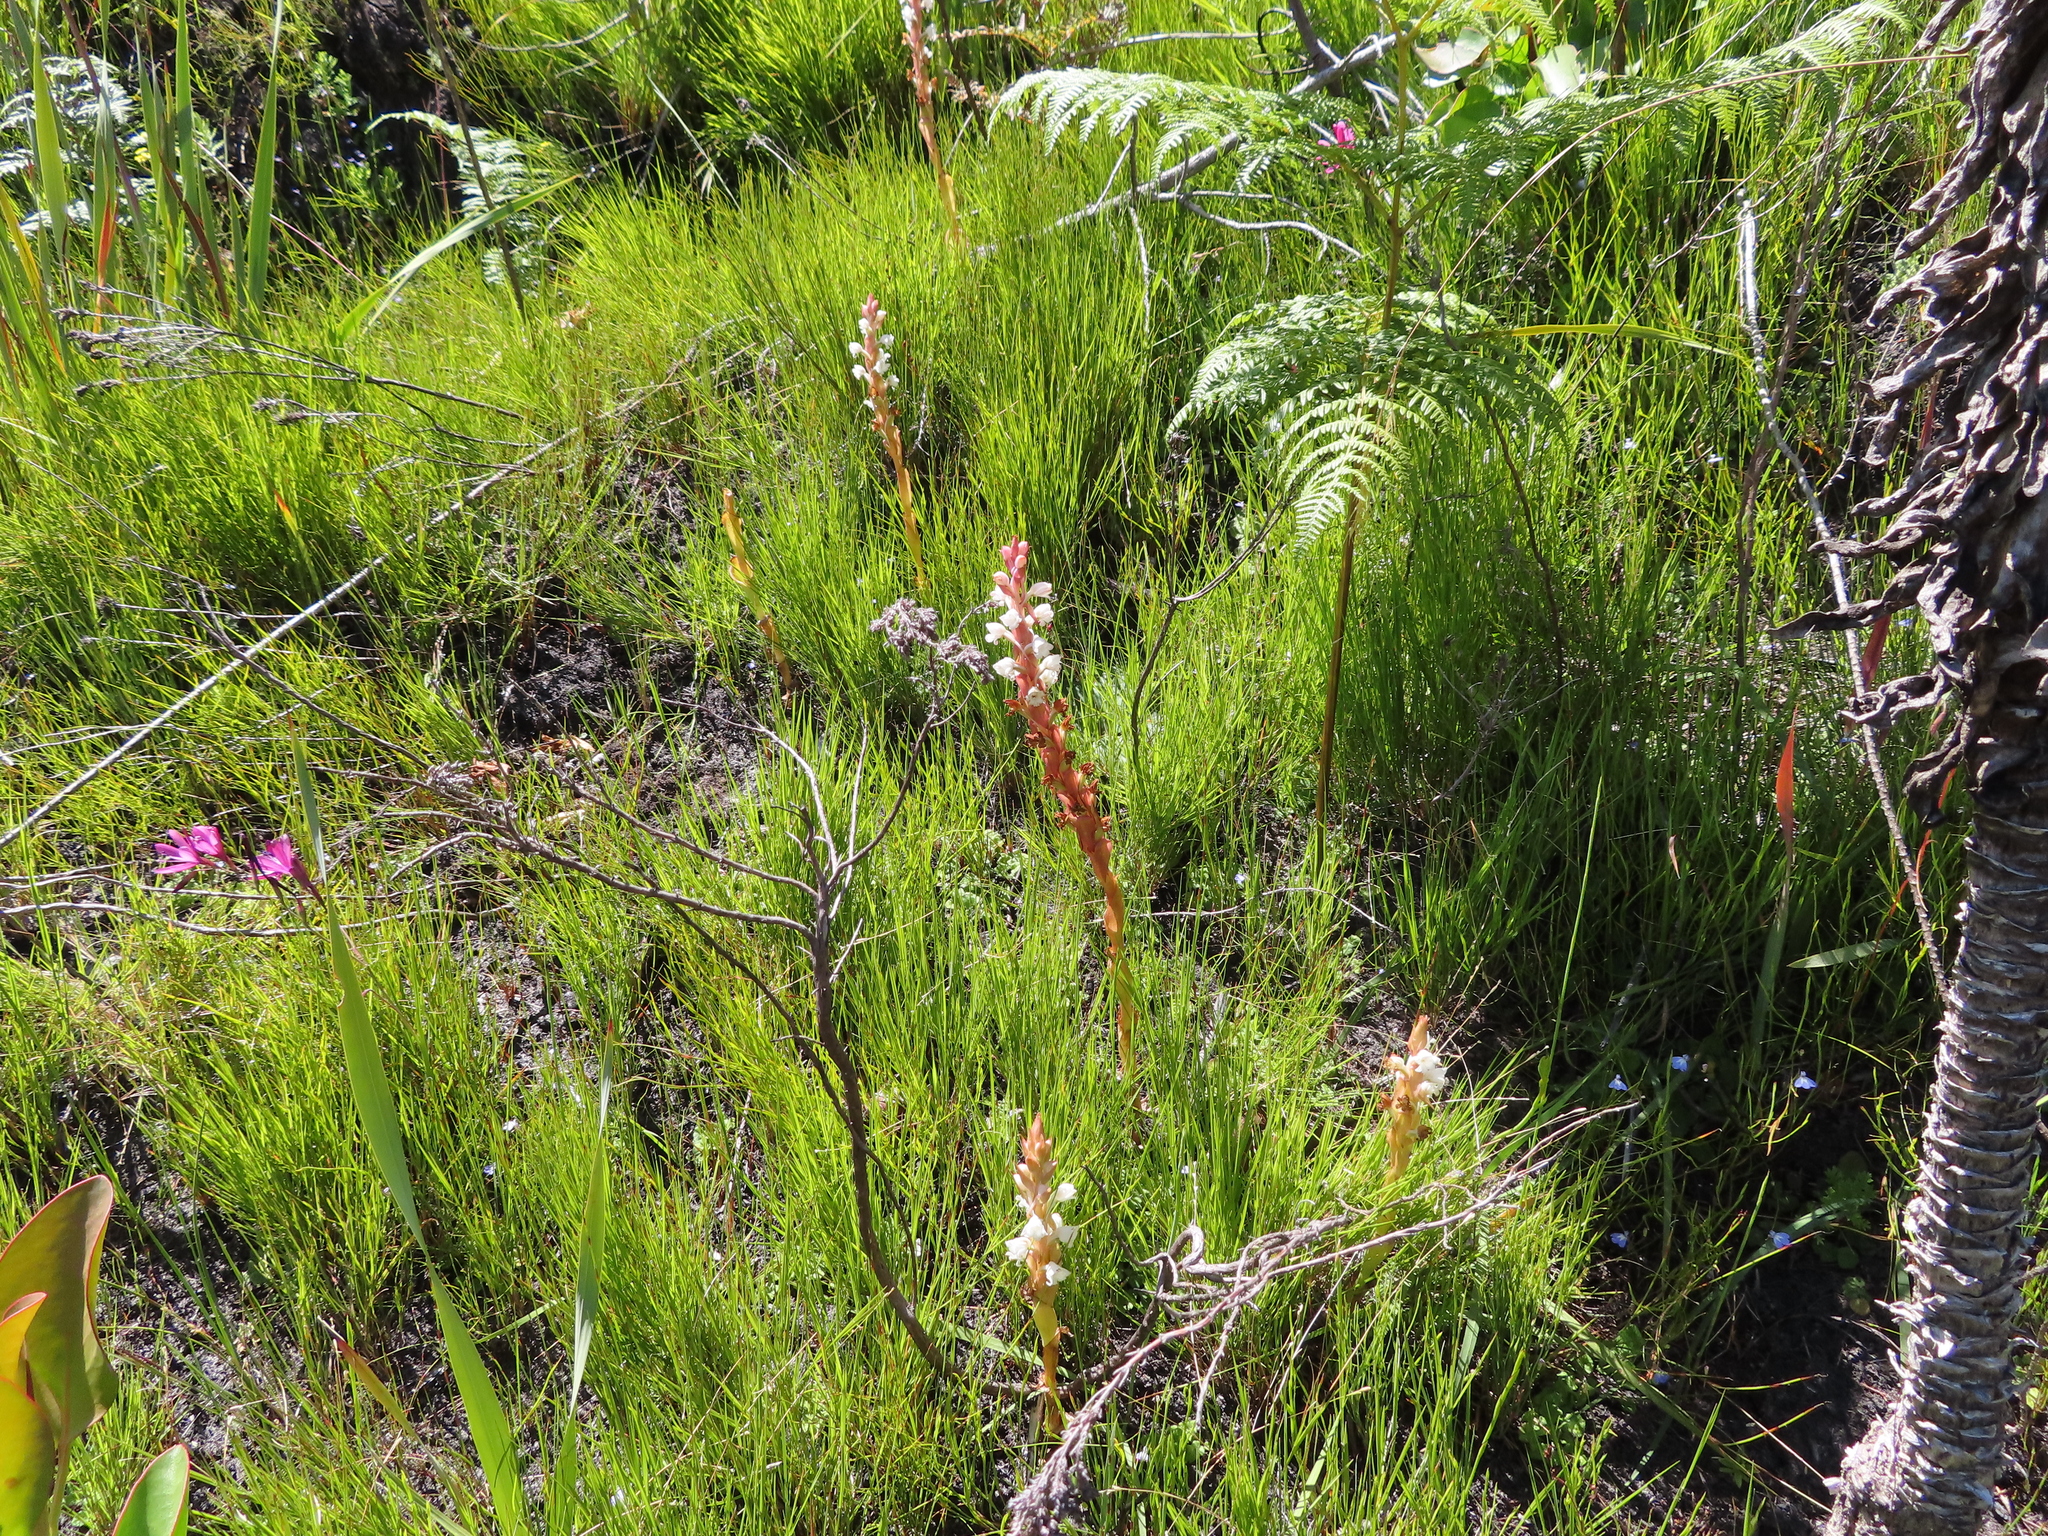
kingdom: Plantae
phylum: Tracheophyta
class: Liliopsida
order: Asparagales
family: Orchidaceae
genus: Satyrium
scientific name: Satyrium acuminatum
